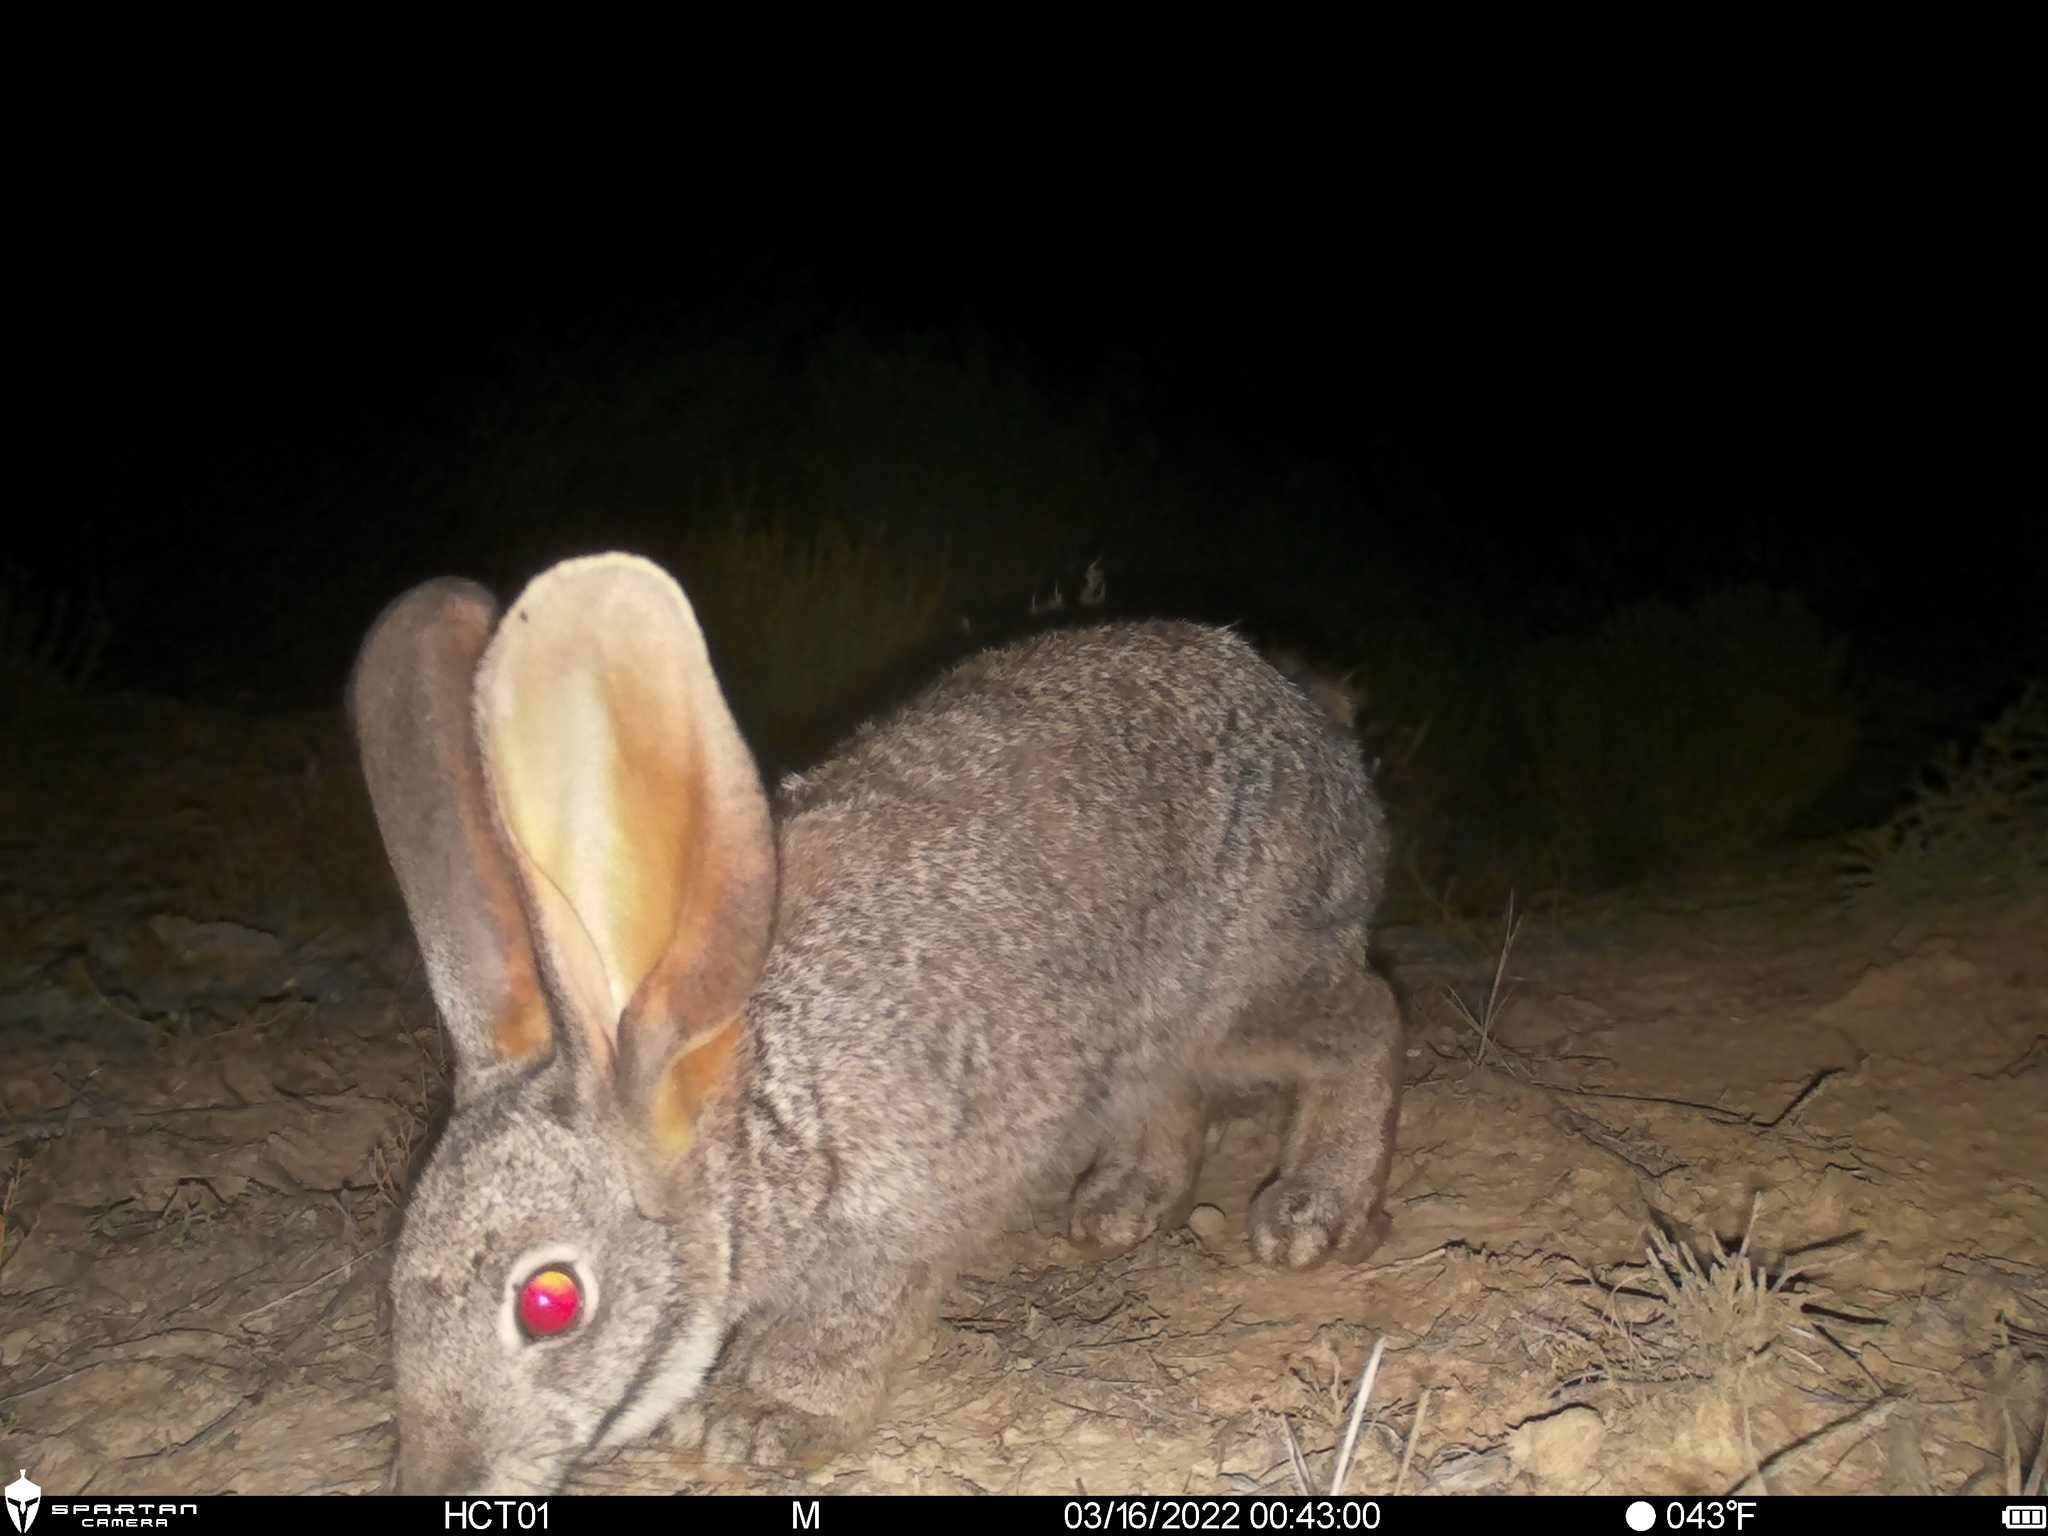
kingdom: Animalia
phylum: Chordata
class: Mammalia
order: Lagomorpha
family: Leporidae
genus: Bunolagus
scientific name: Bunolagus monticularis
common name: Riverine rabbit
